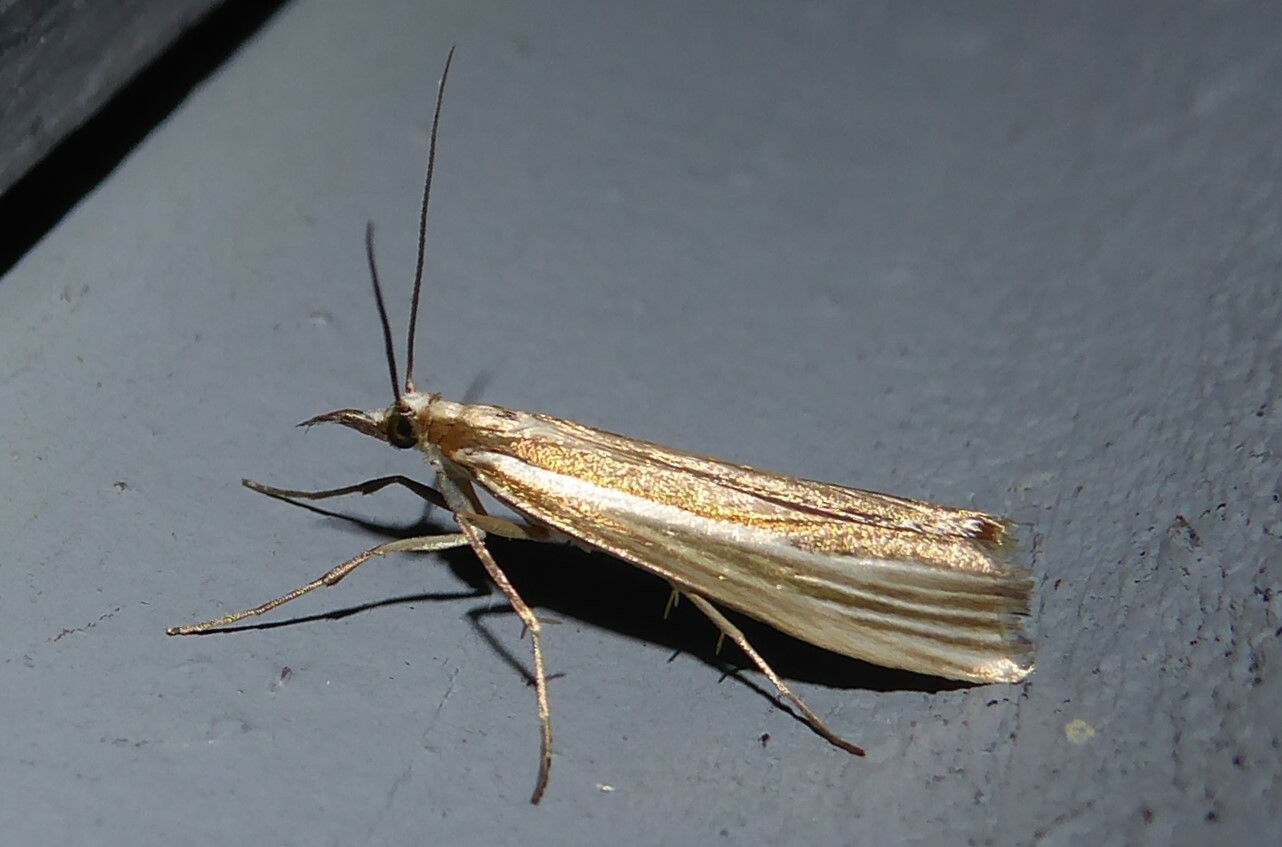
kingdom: Animalia
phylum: Arthropoda
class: Insecta
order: Lepidoptera
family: Crambidae
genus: Orocrambus
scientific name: Orocrambus ramosellus
